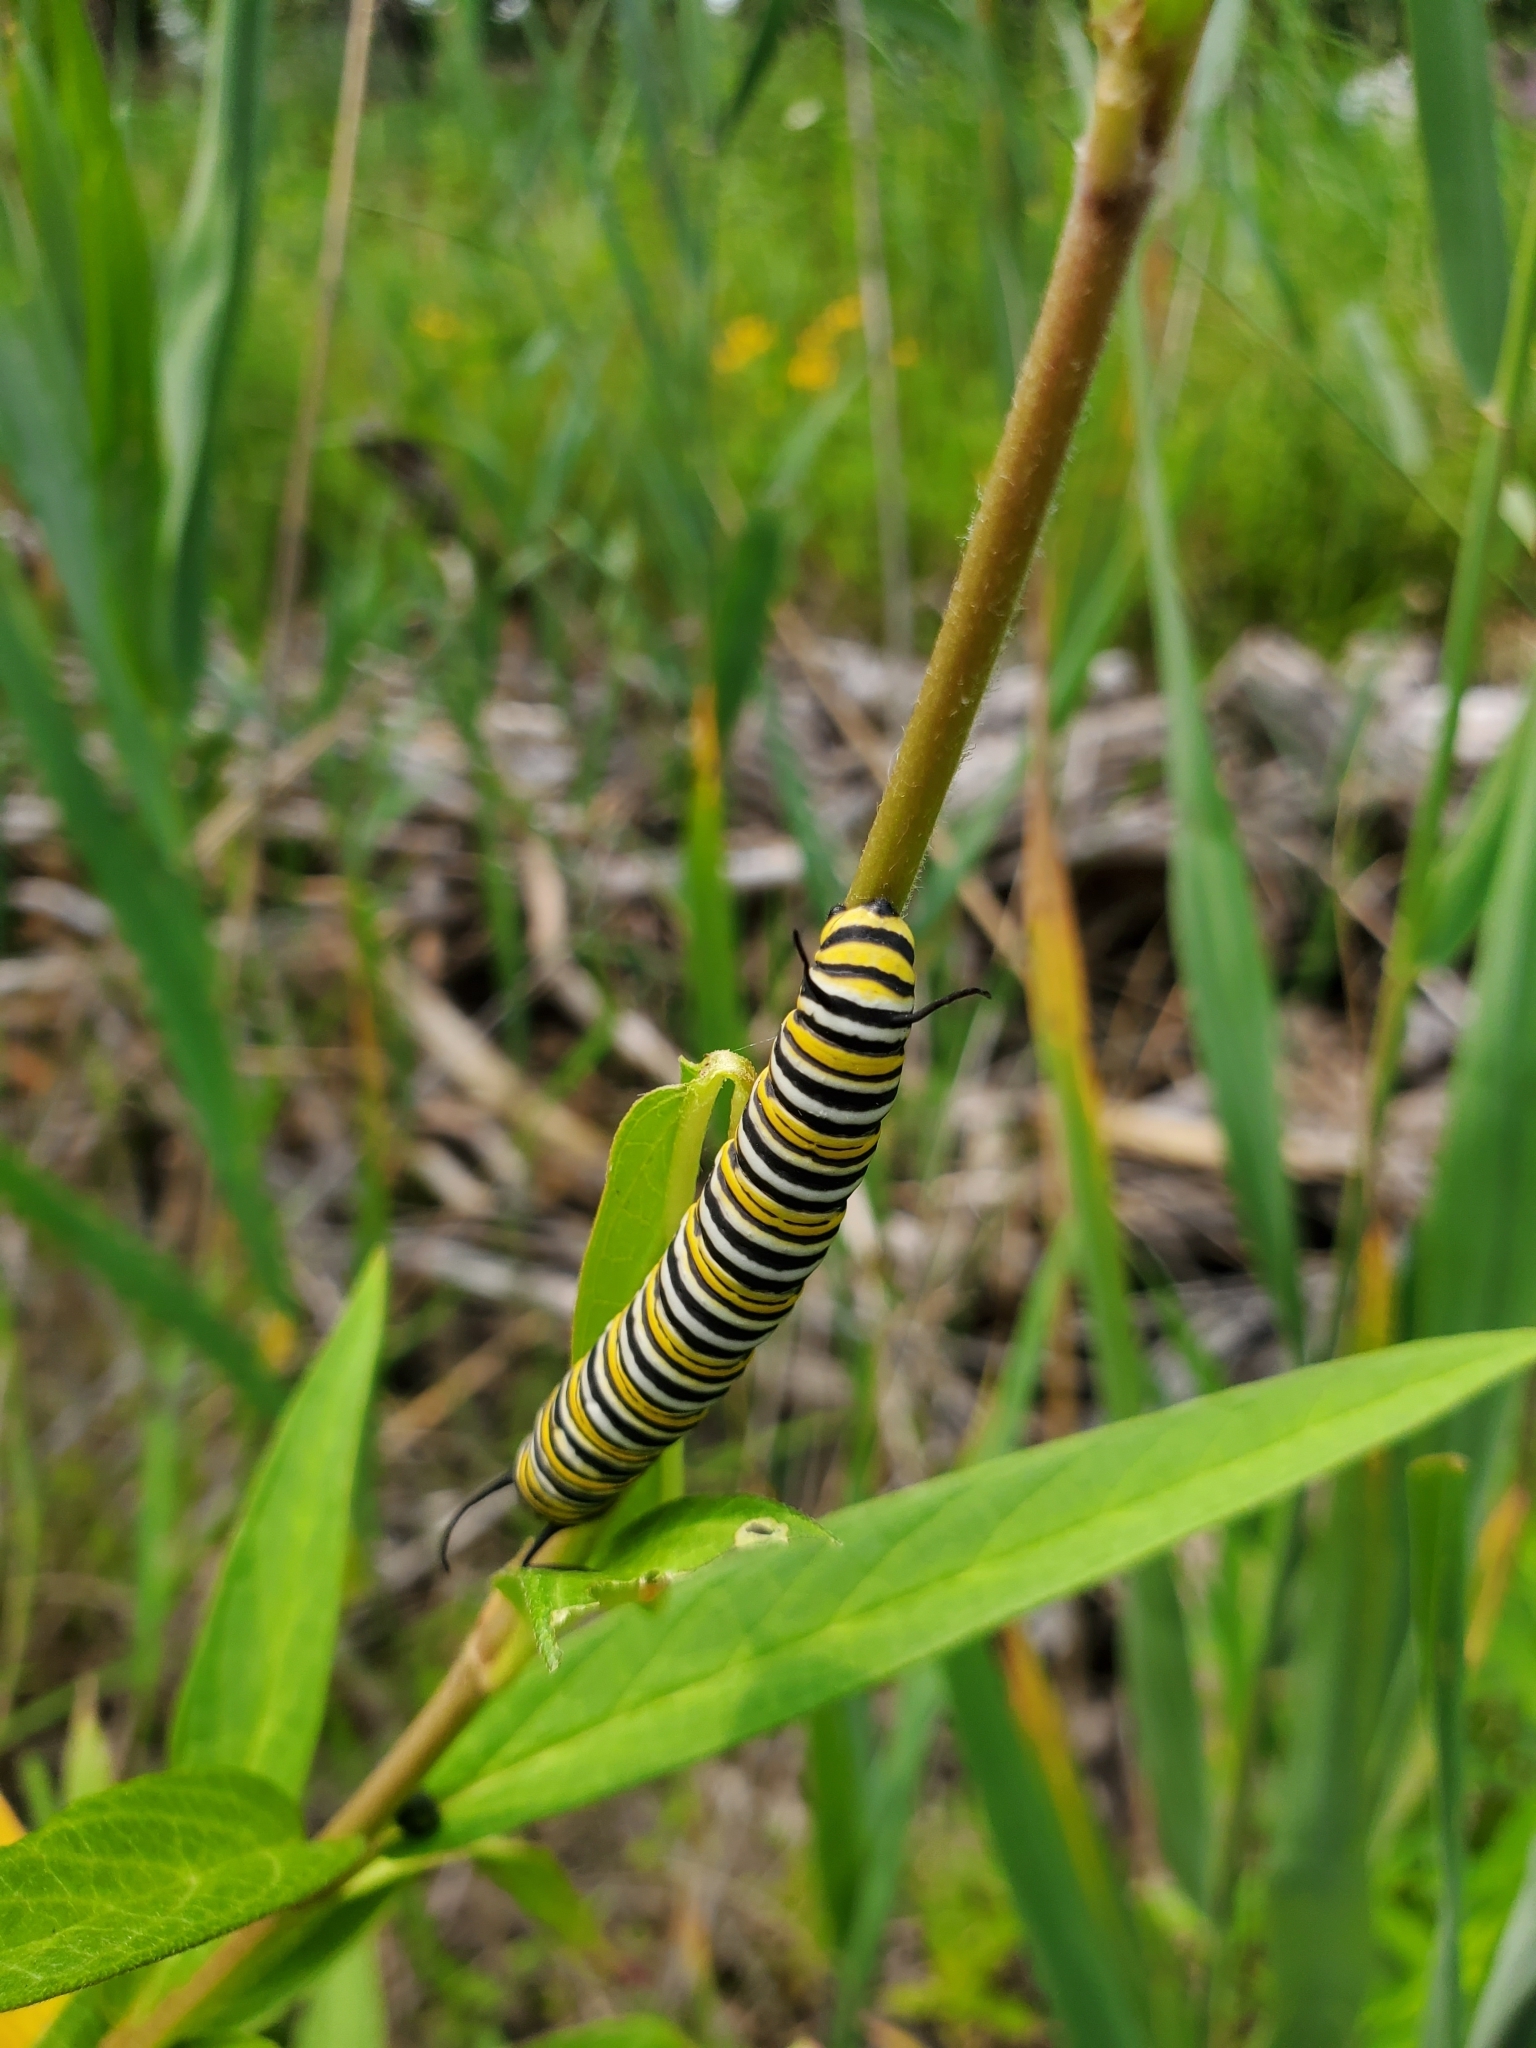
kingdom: Animalia
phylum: Arthropoda
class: Insecta
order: Lepidoptera
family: Nymphalidae
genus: Danaus
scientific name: Danaus plexippus
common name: Monarch
